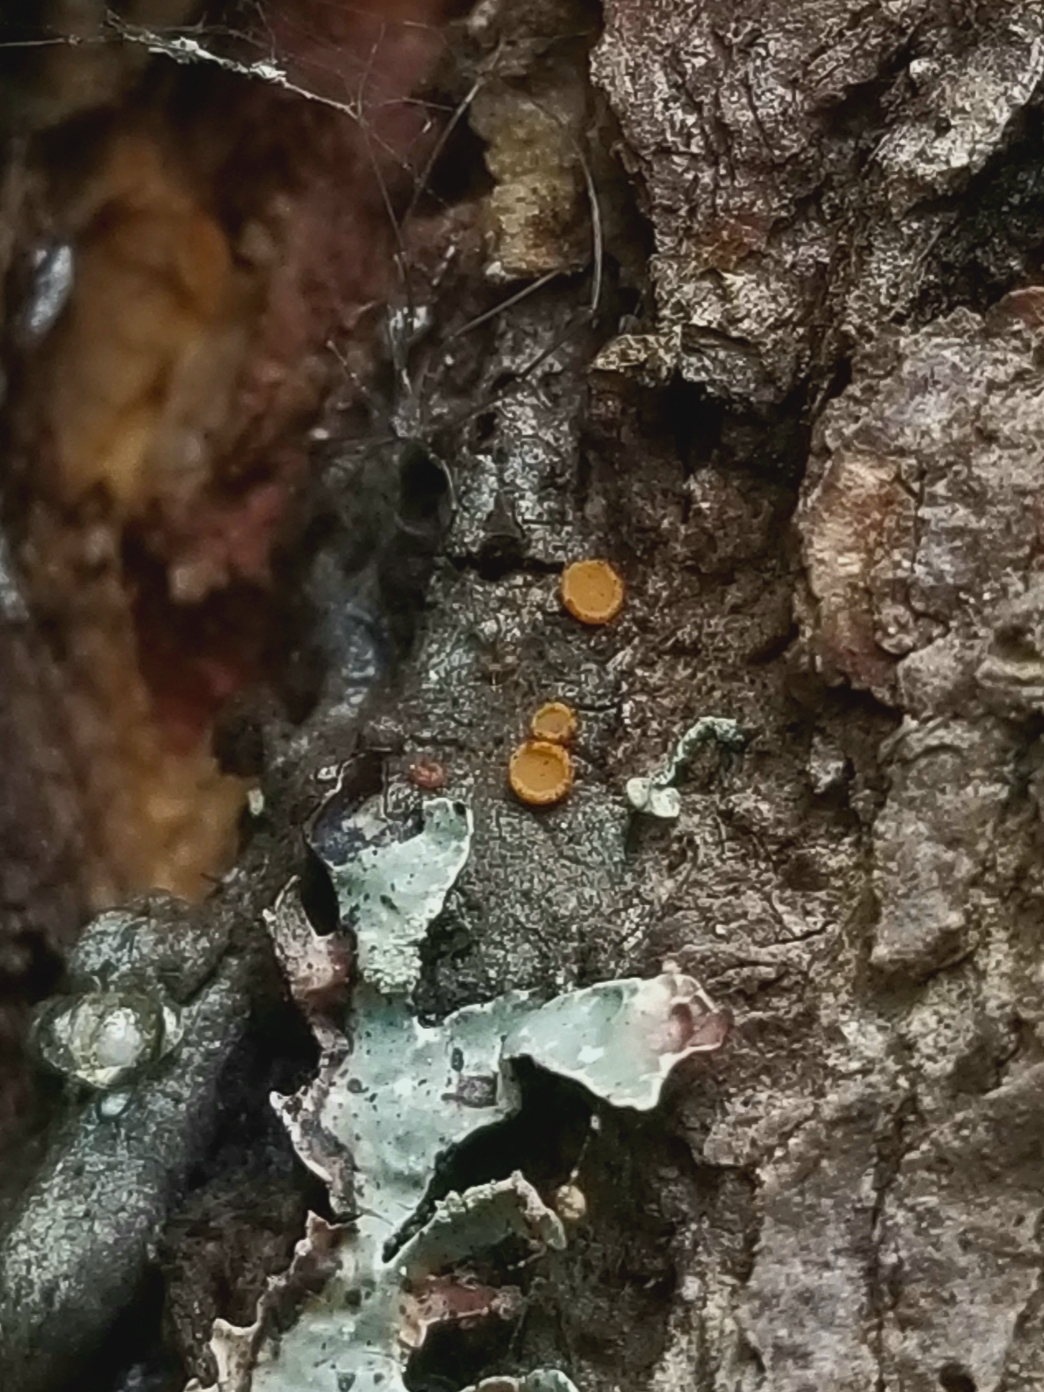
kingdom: Fungi
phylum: Ascomycota
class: Sareomycetes
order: Sareales
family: Sareaceae
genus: Sarea
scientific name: Sarea resinae
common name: Sarea lichen
